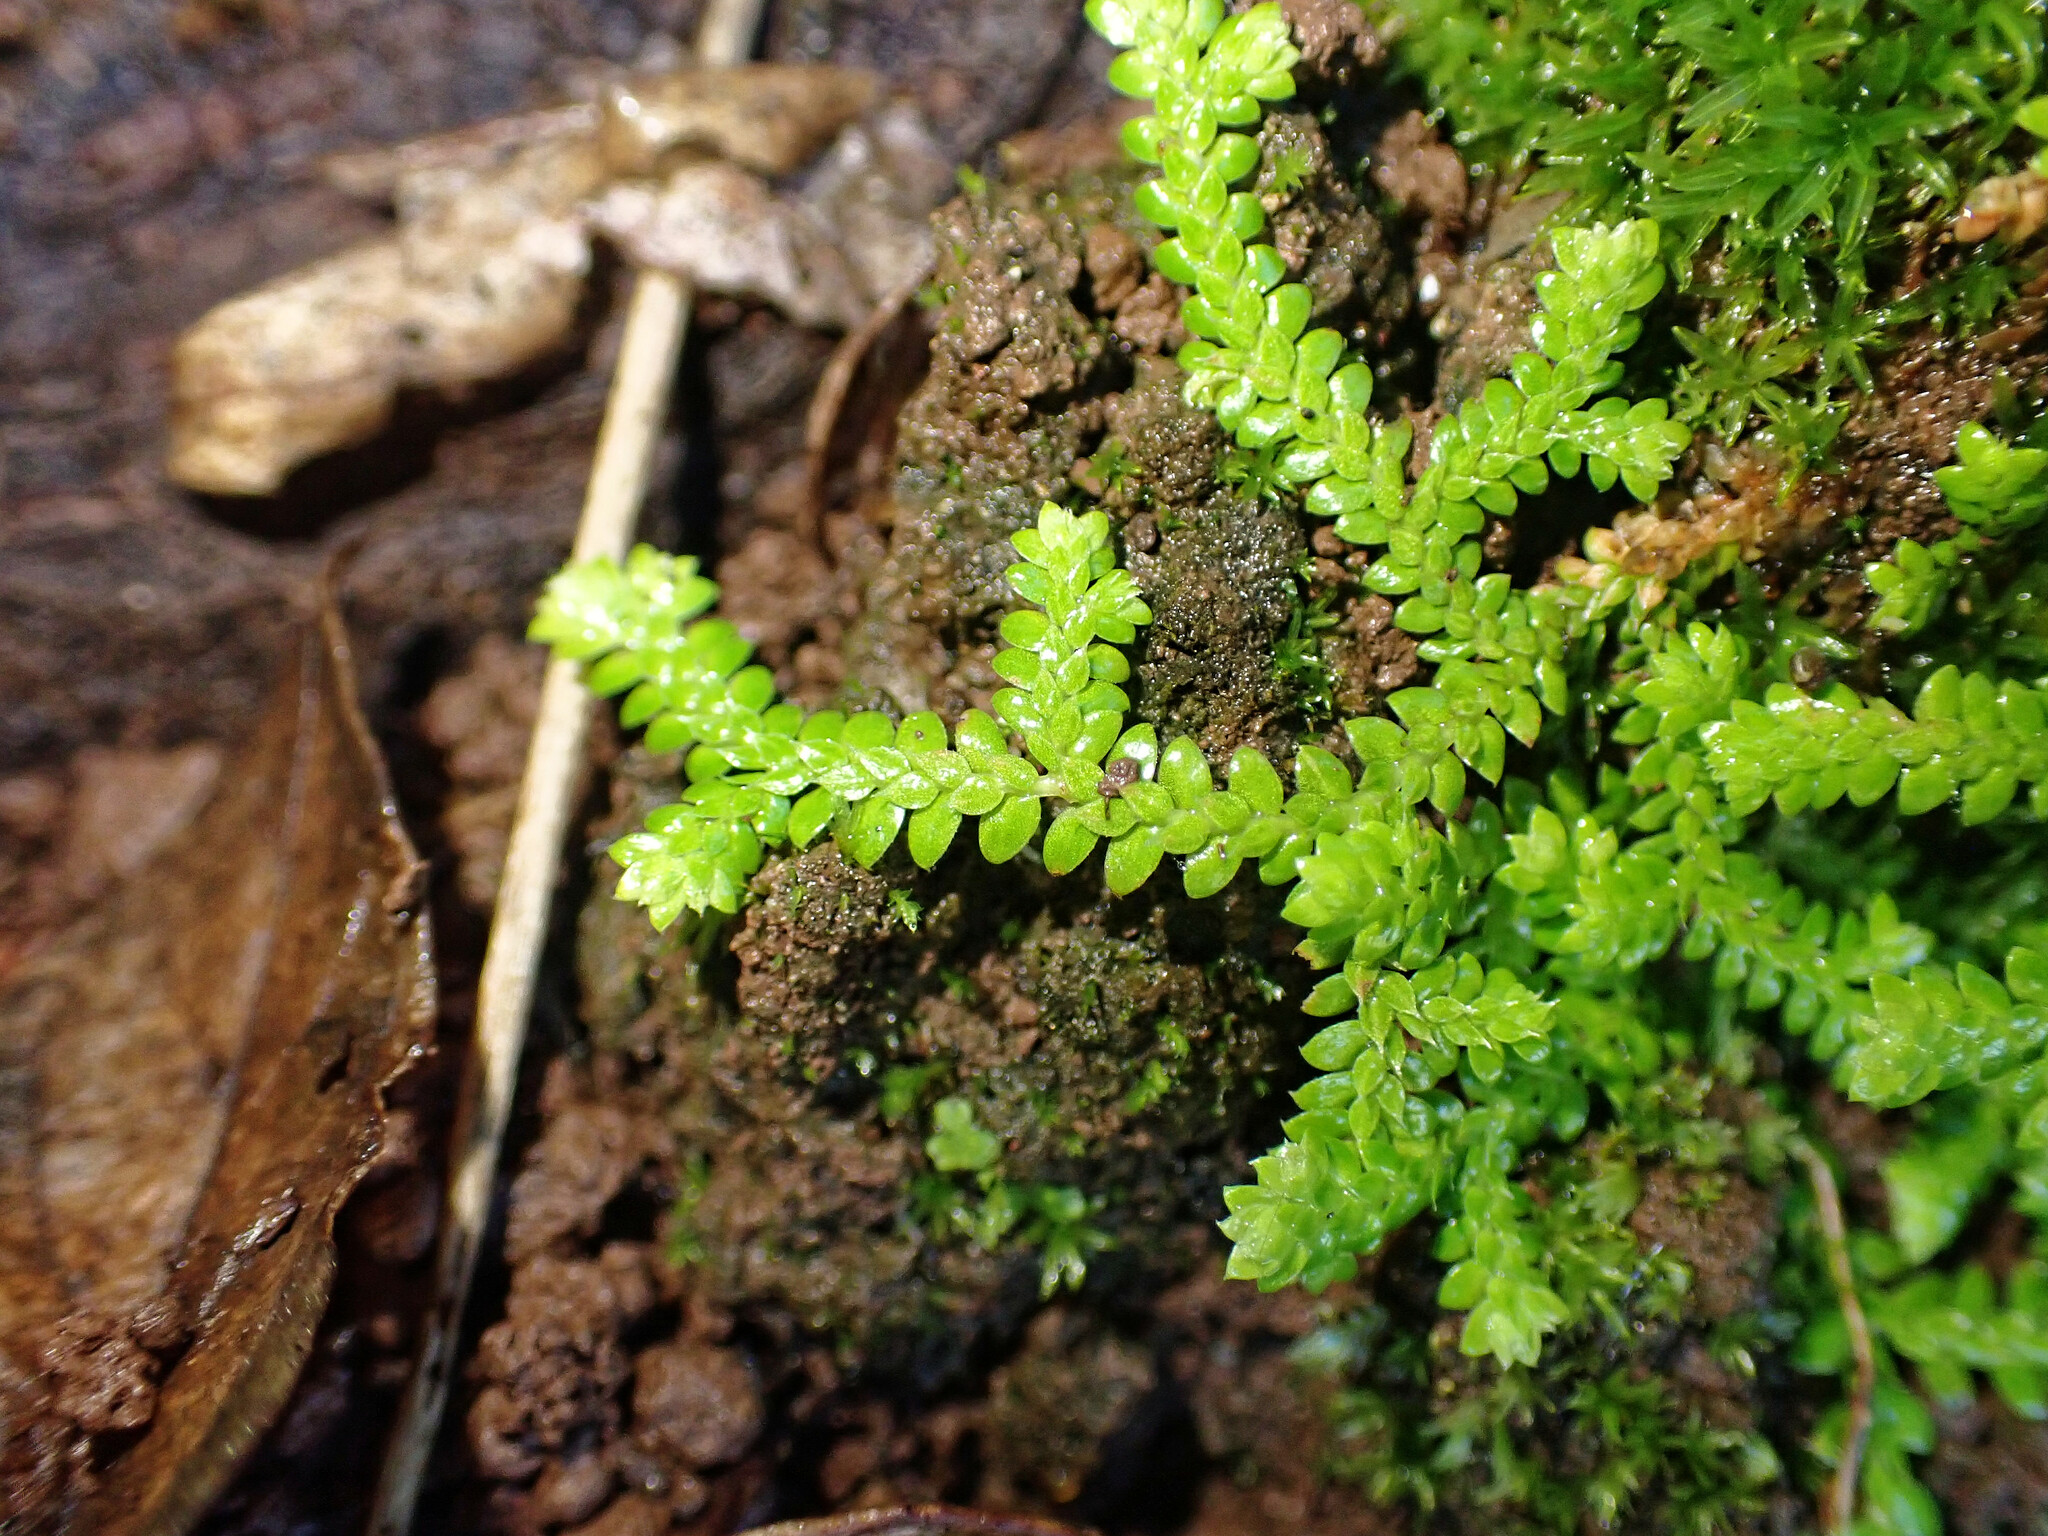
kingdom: Plantae
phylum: Tracheophyta
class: Lycopodiopsida
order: Selaginellales
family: Selaginellaceae
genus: Selaginella
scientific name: Selaginella denticulata
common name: Toothed-leaved clubmoss
